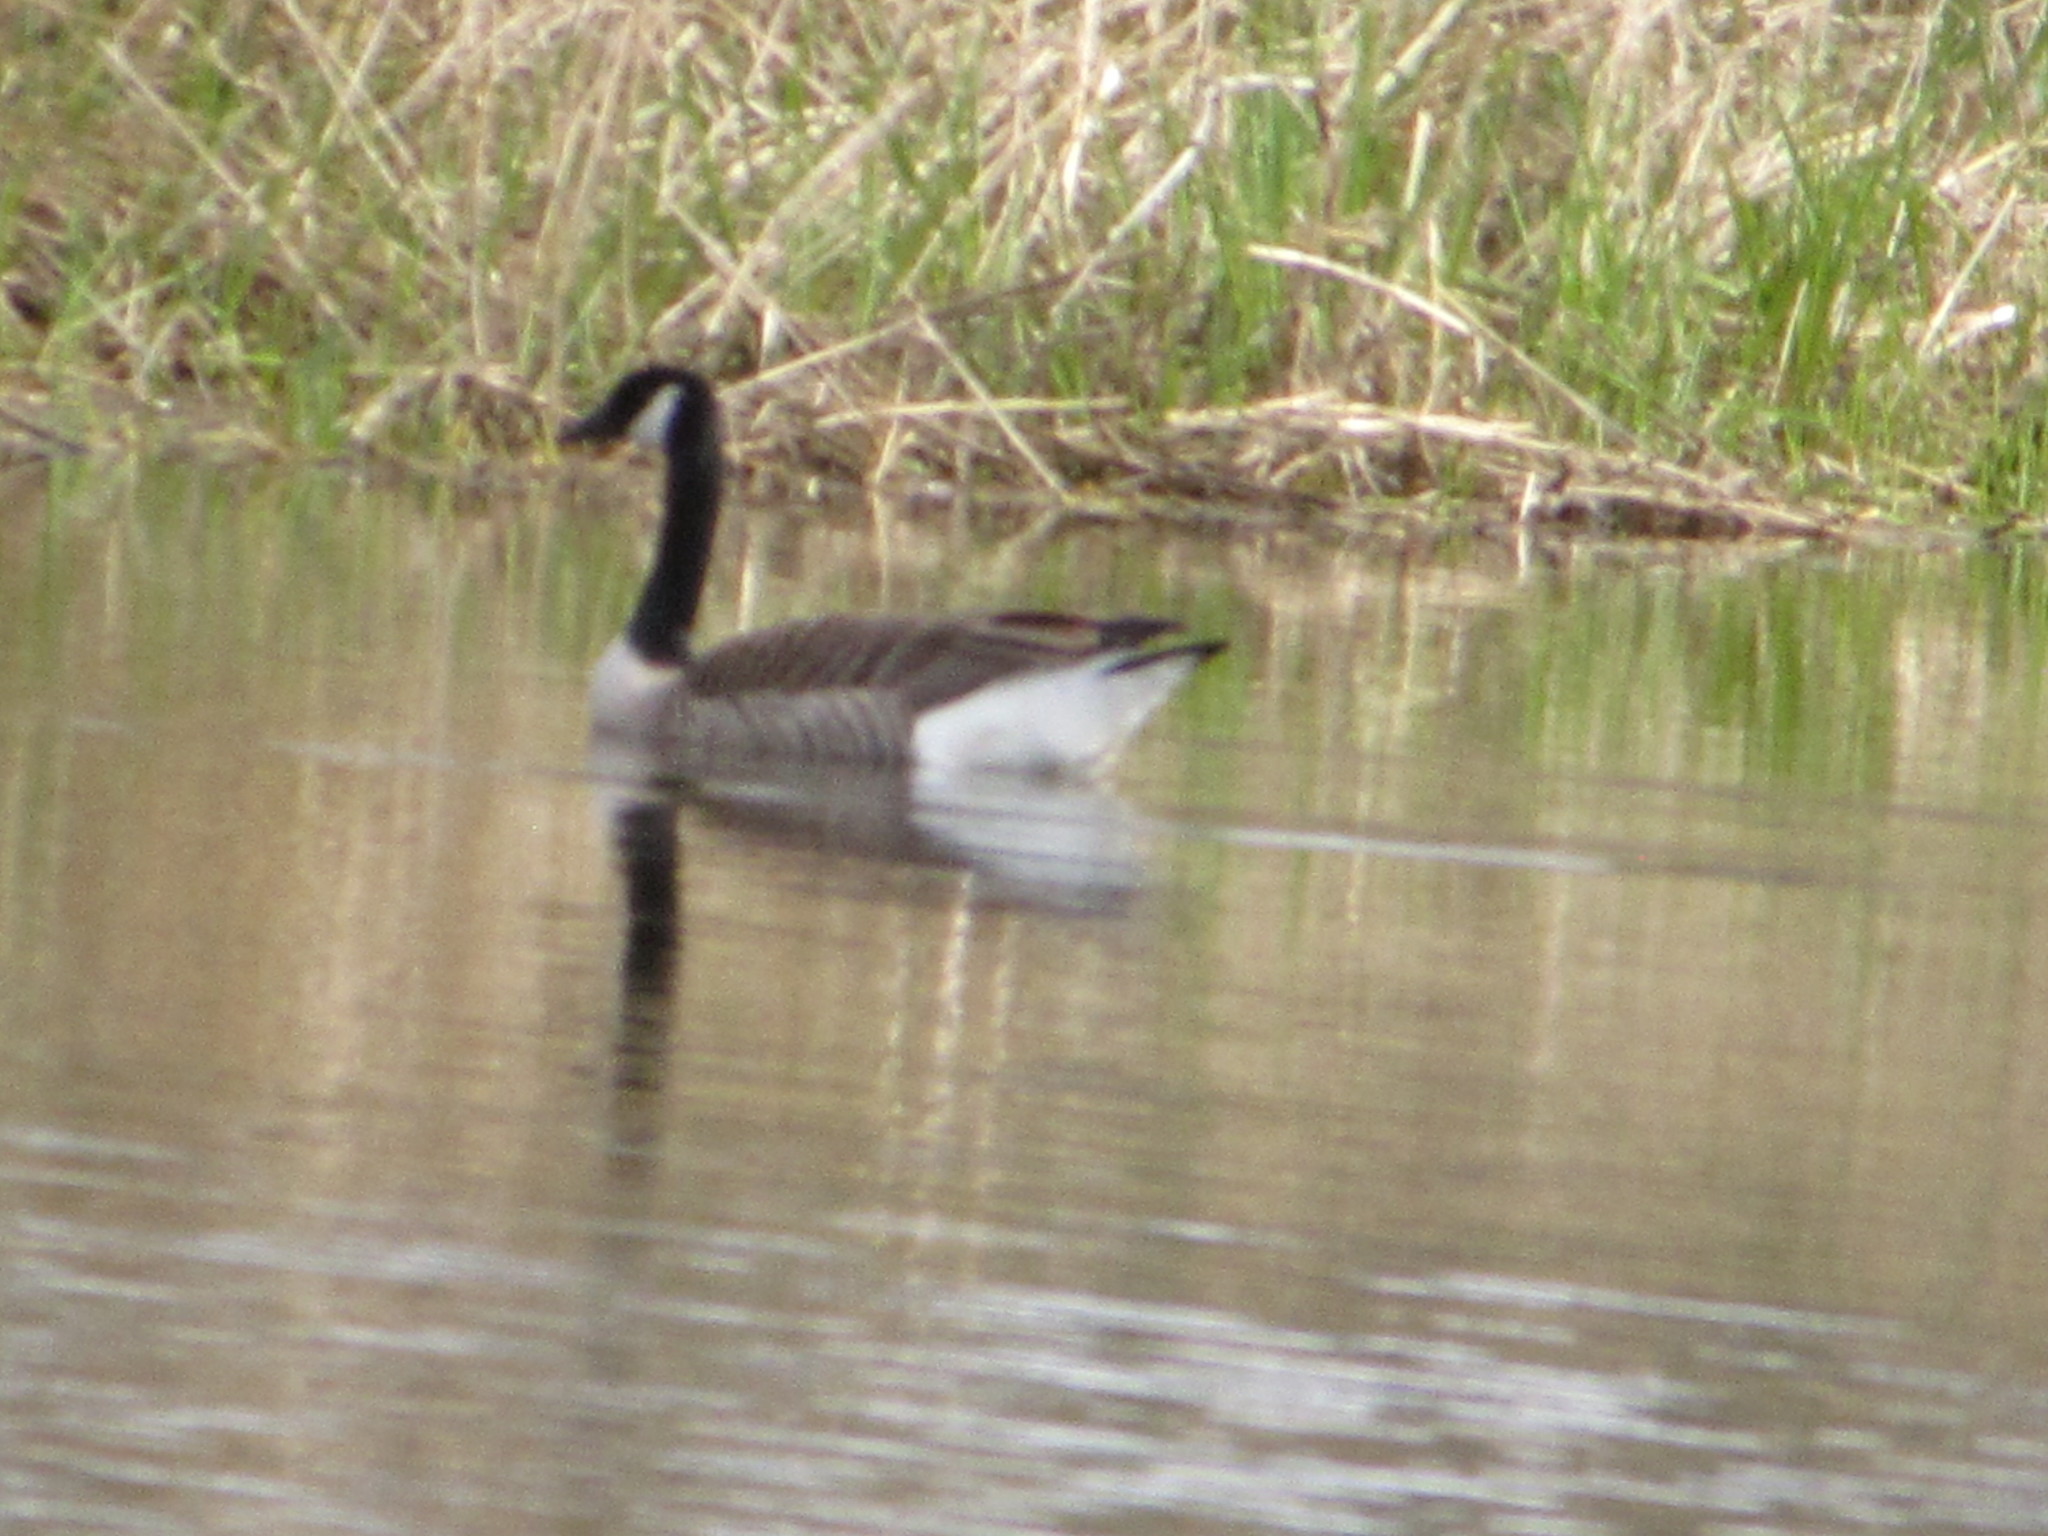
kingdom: Animalia
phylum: Chordata
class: Aves
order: Anseriformes
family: Anatidae
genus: Branta
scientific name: Branta canadensis
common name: Canada goose
